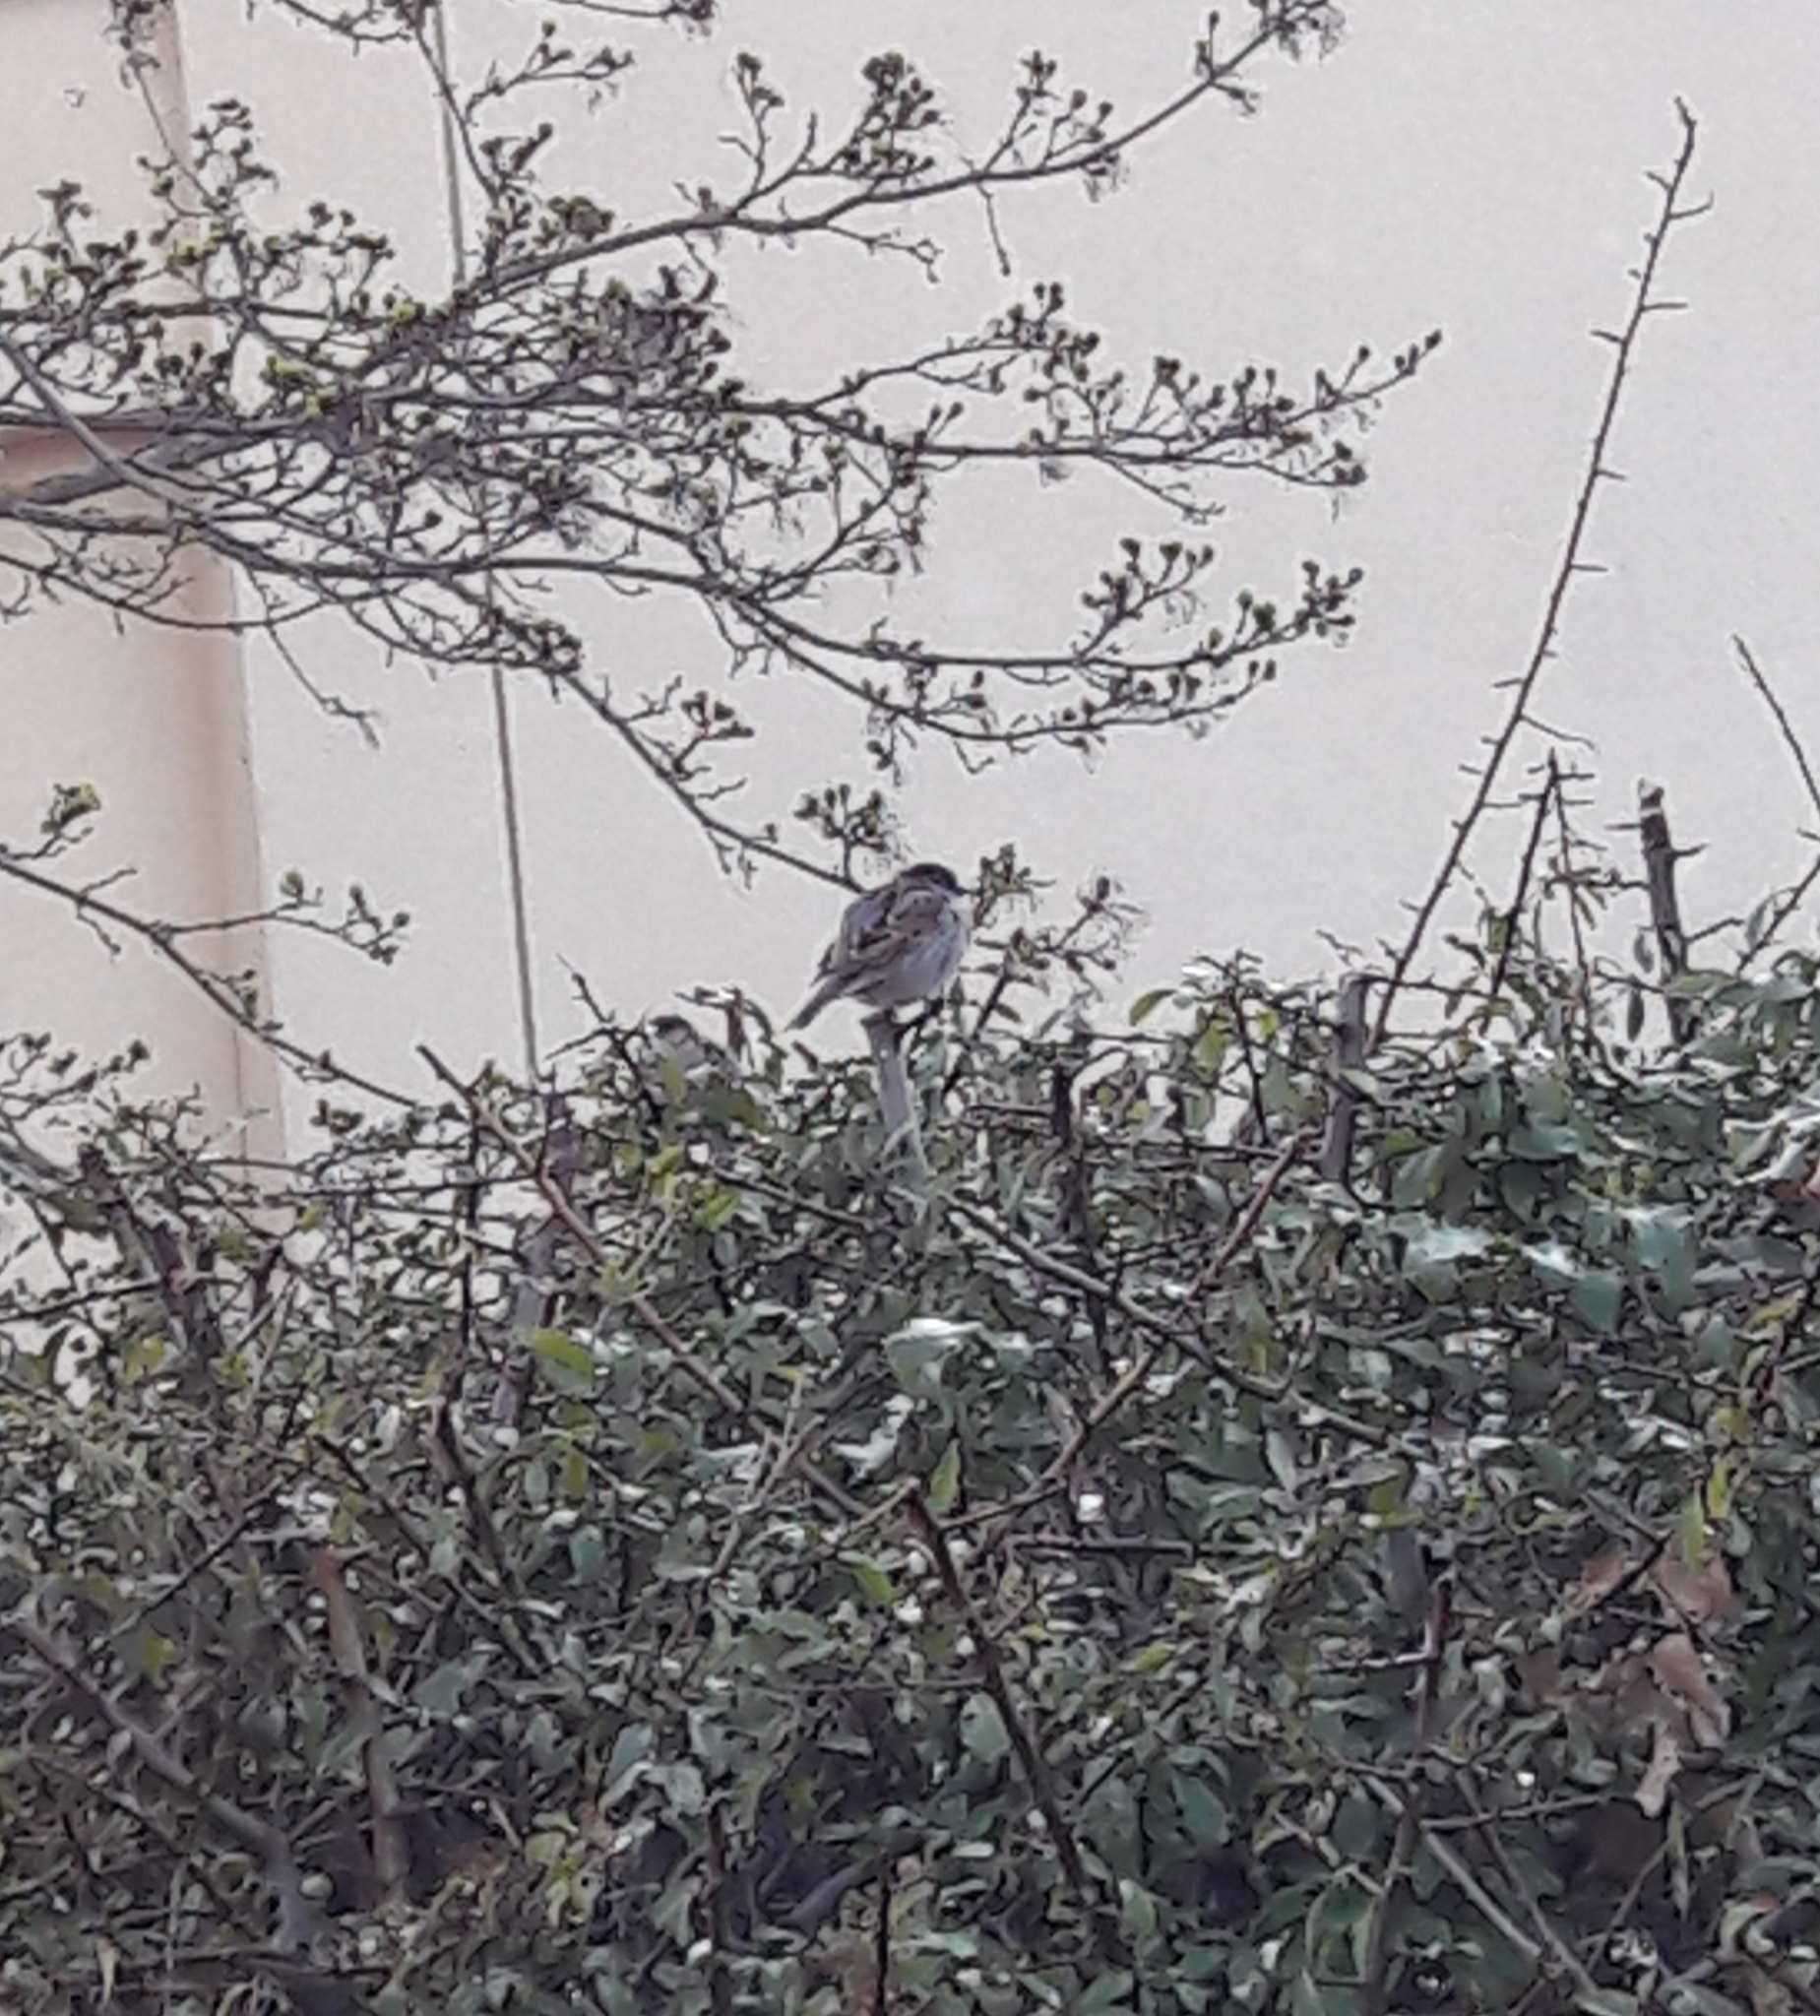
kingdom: Animalia
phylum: Chordata
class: Aves
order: Passeriformes
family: Passeridae
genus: Passer
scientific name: Passer domesticus
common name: House sparrow
